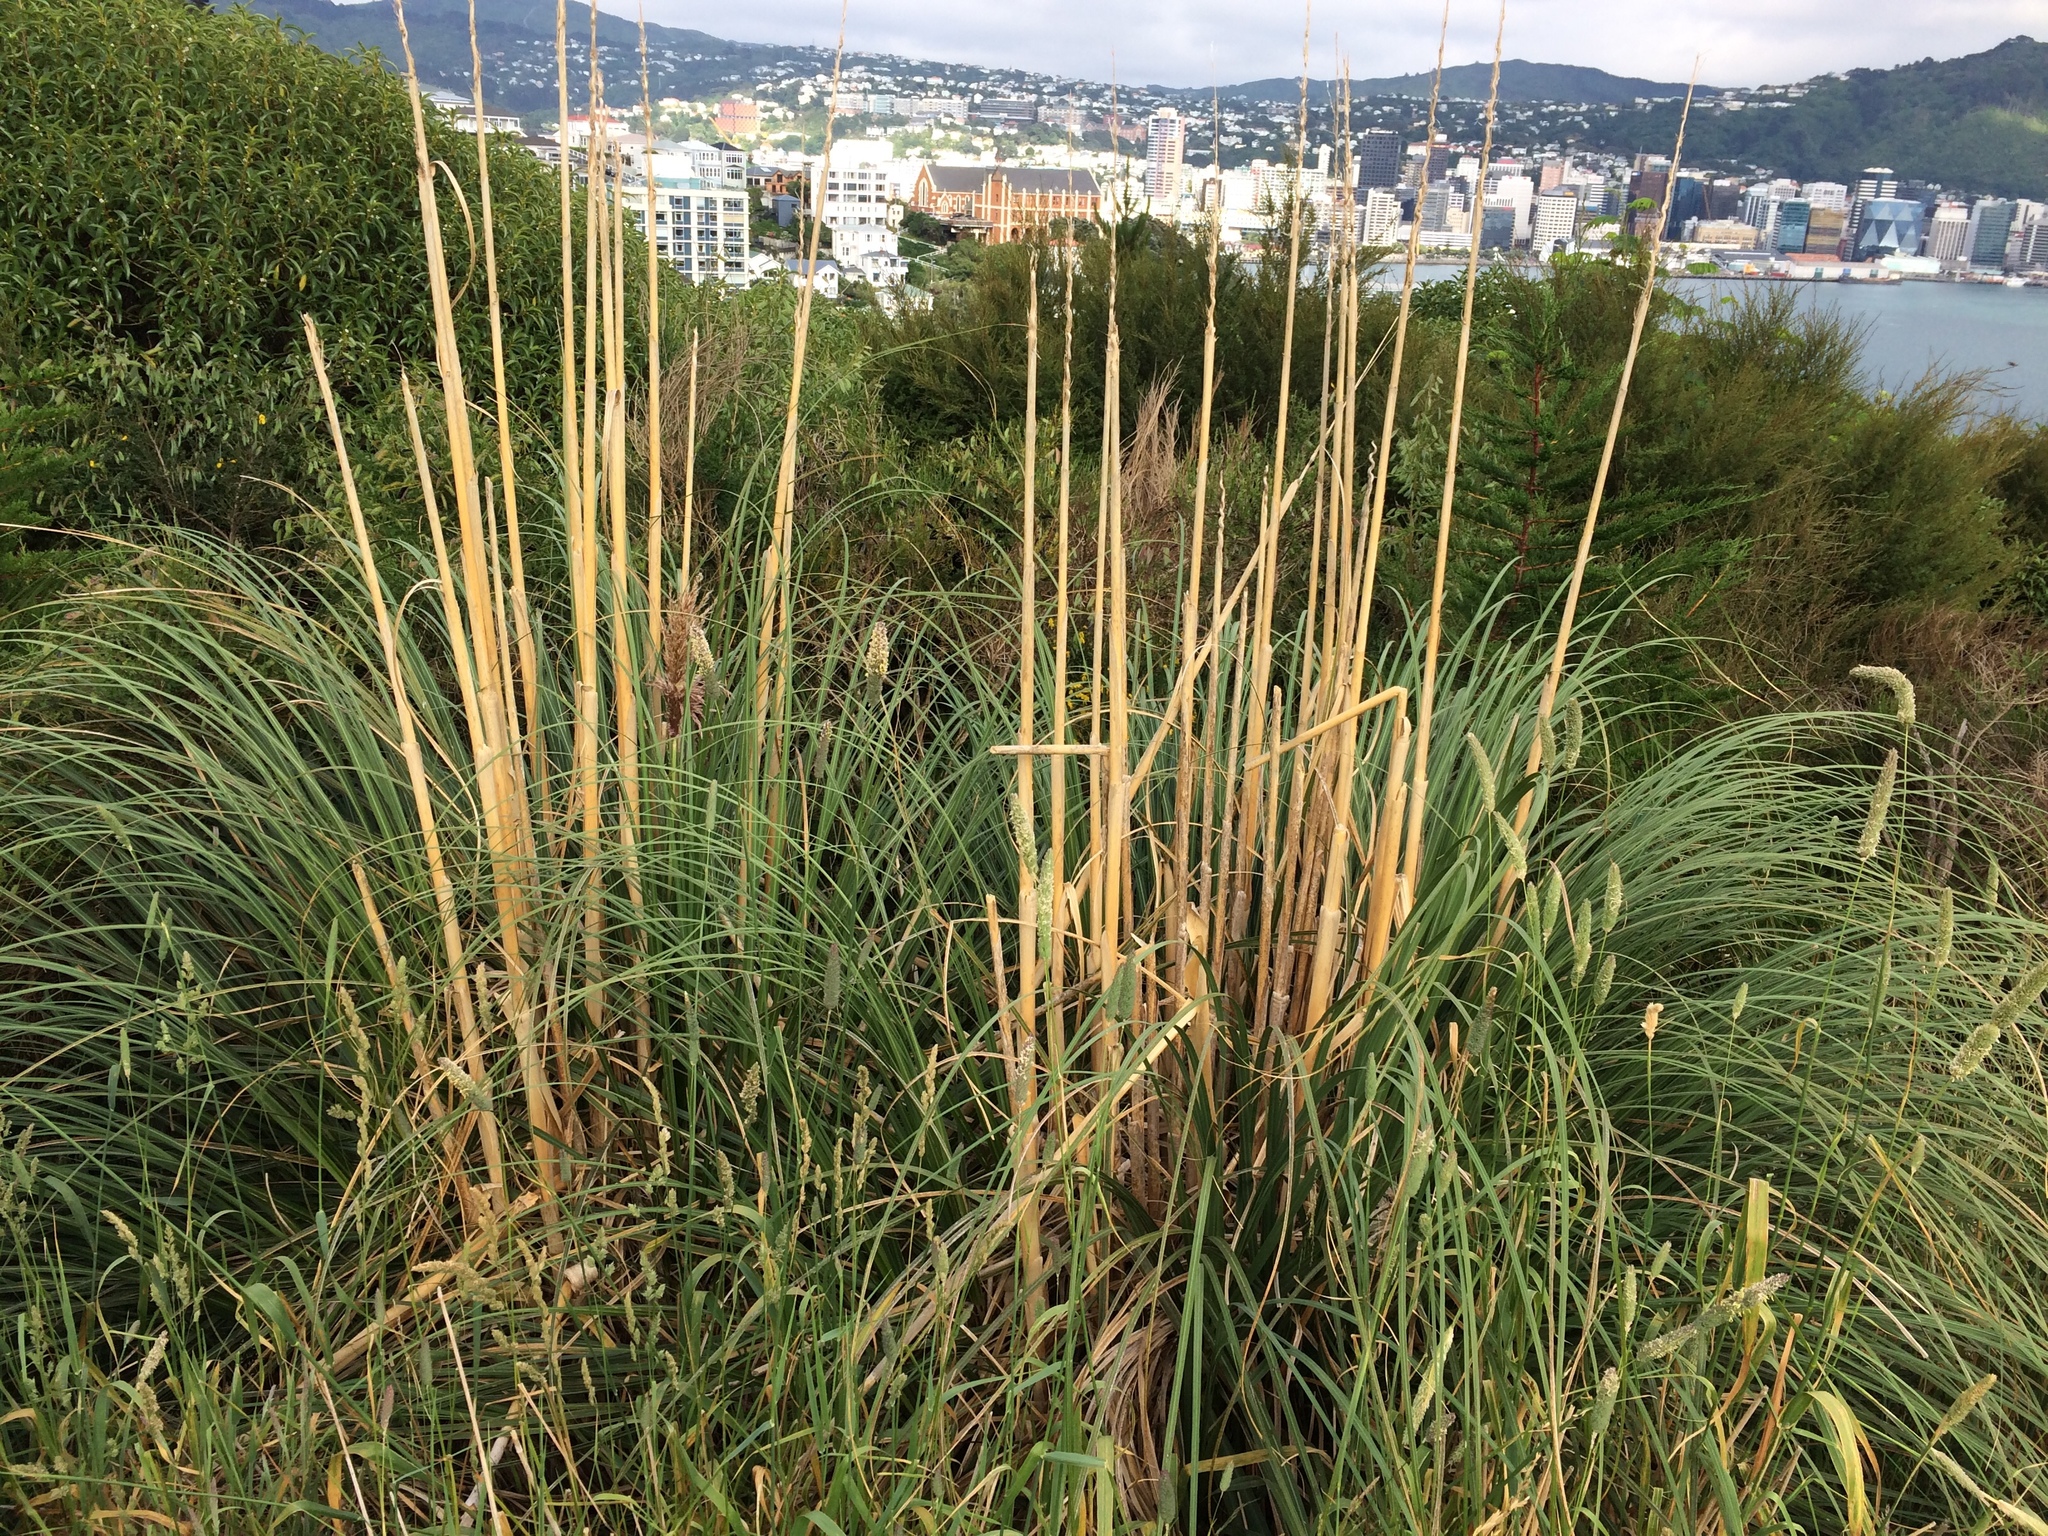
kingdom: Plantae
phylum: Tracheophyta
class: Liliopsida
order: Poales
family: Poaceae
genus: Cortaderia
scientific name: Cortaderia jubata
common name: Purple pampas grass
